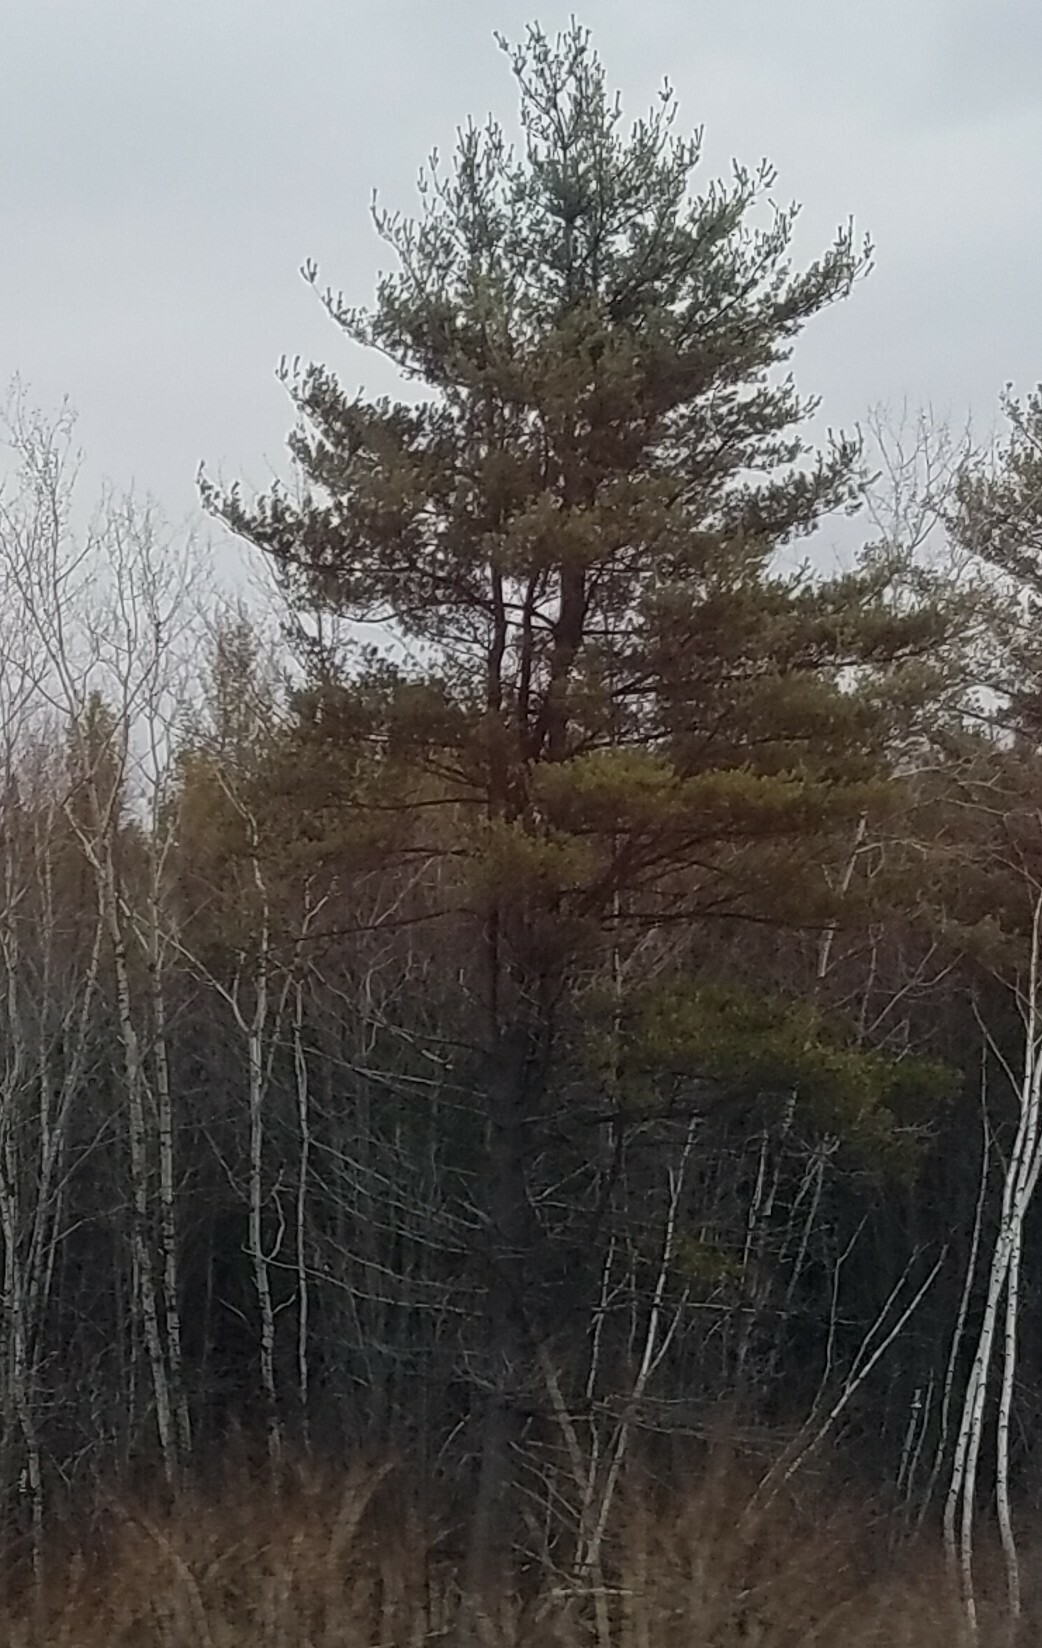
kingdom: Plantae
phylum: Tracheophyta
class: Pinopsida
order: Pinales
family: Pinaceae
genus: Pinus
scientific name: Pinus strobus
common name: Weymouth pine
